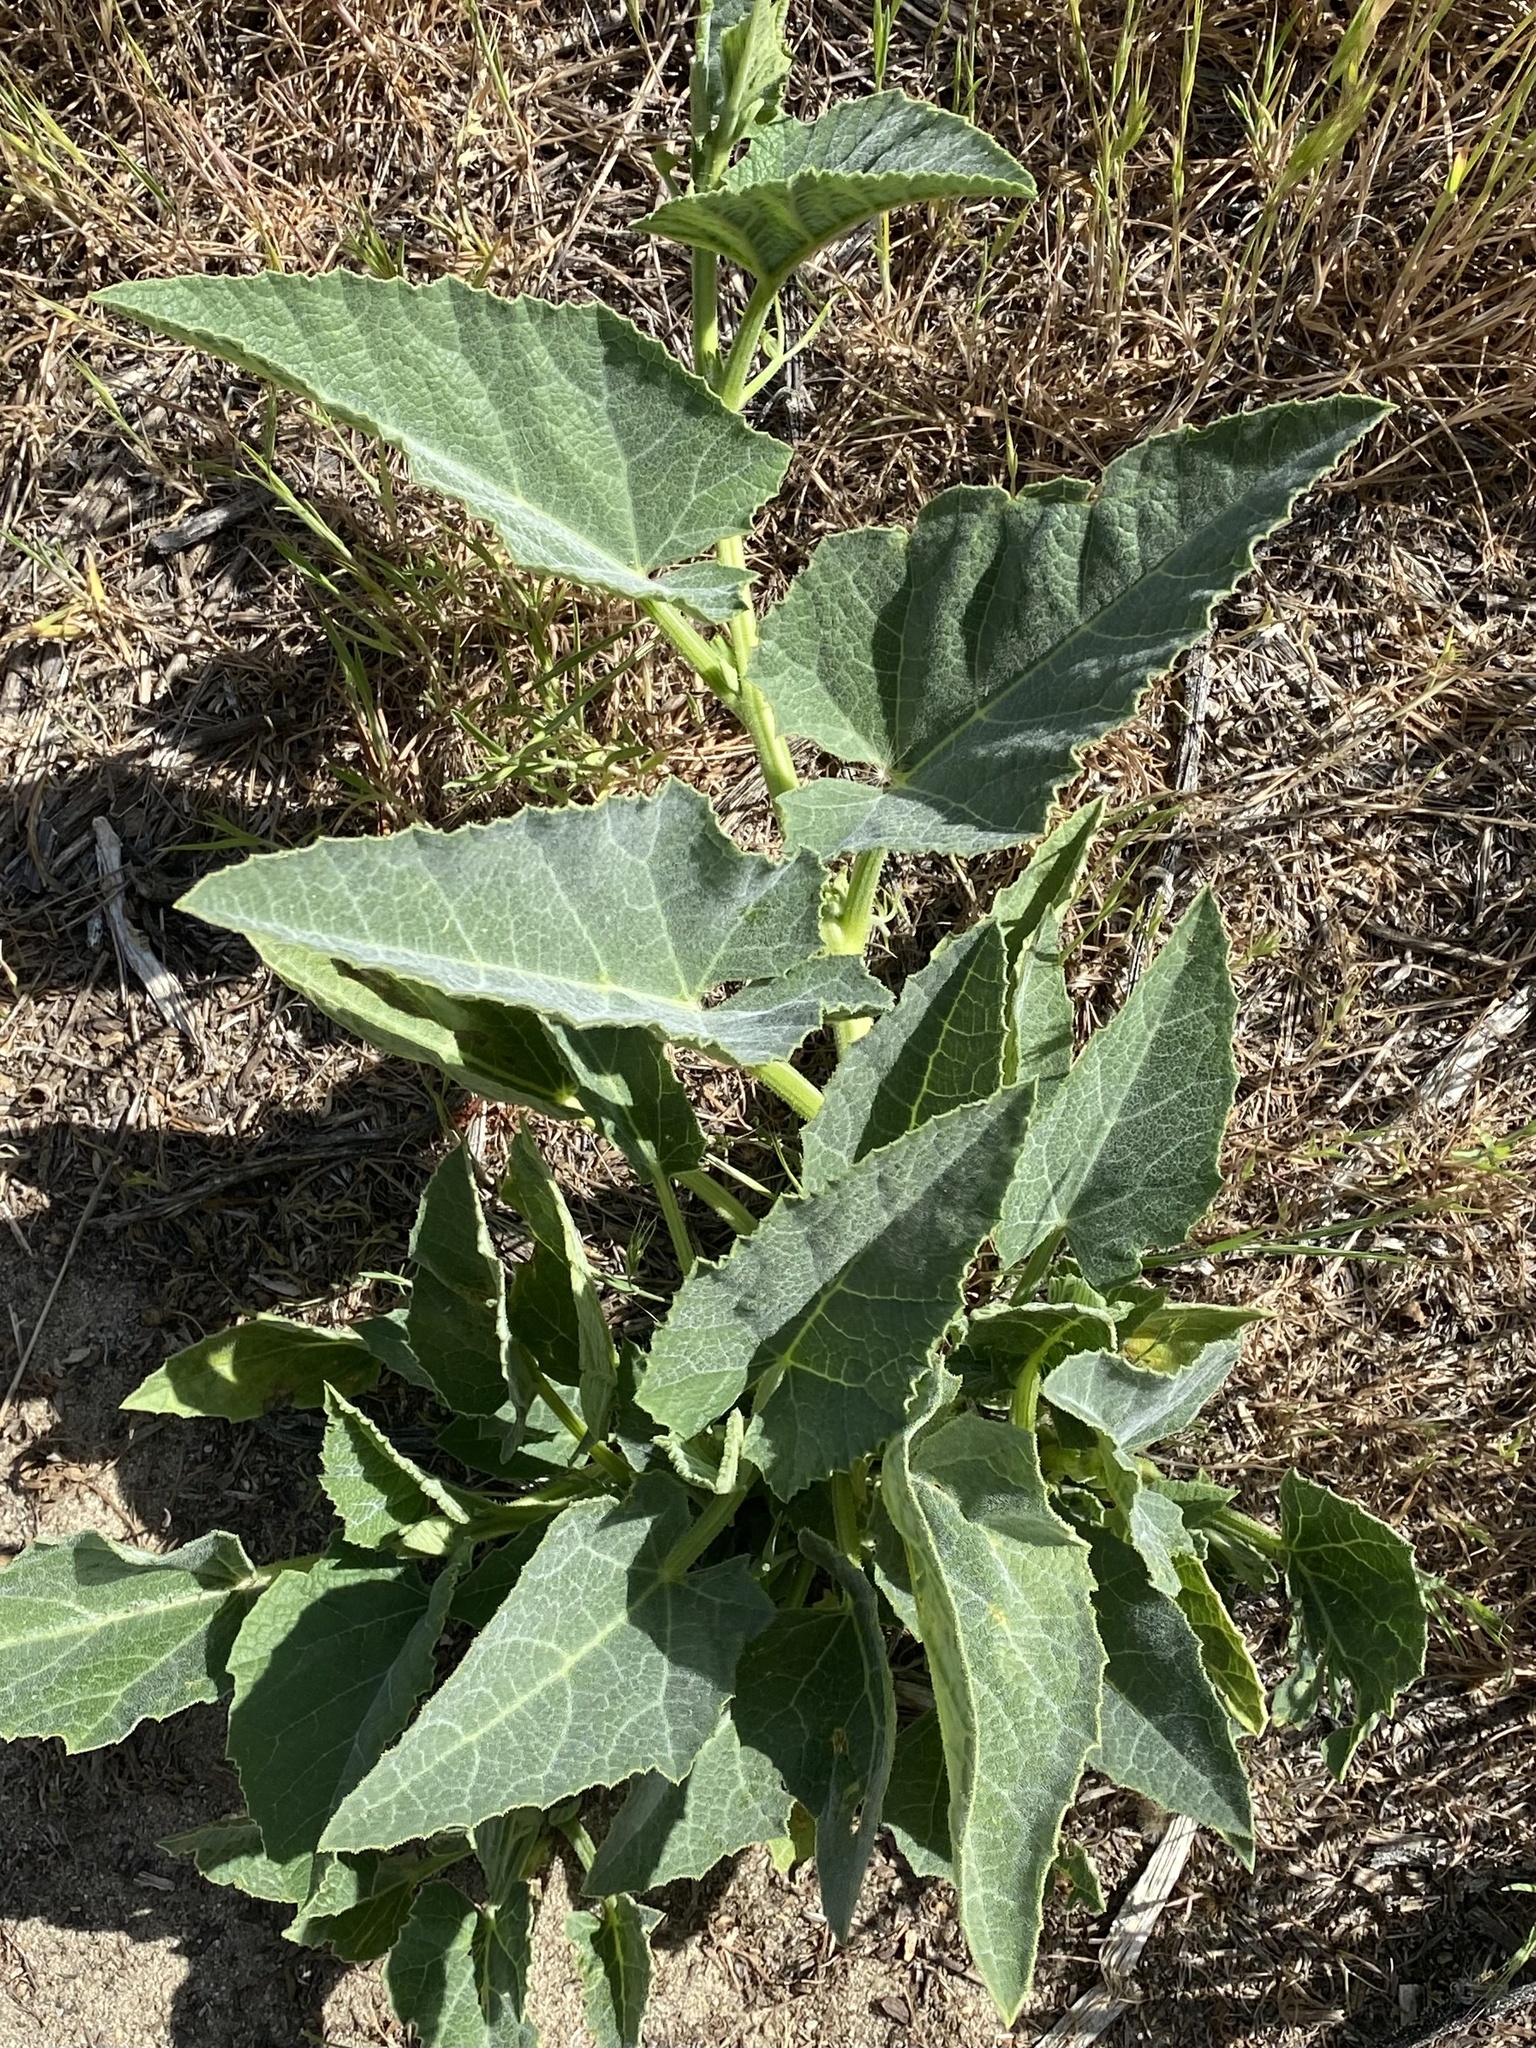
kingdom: Plantae
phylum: Tracheophyta
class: Magnoliopsida
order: Cucurbitales
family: Cucurbitaceae
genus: Cucurbita
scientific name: Cucurbita foetidissima
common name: Buffalo gourd
